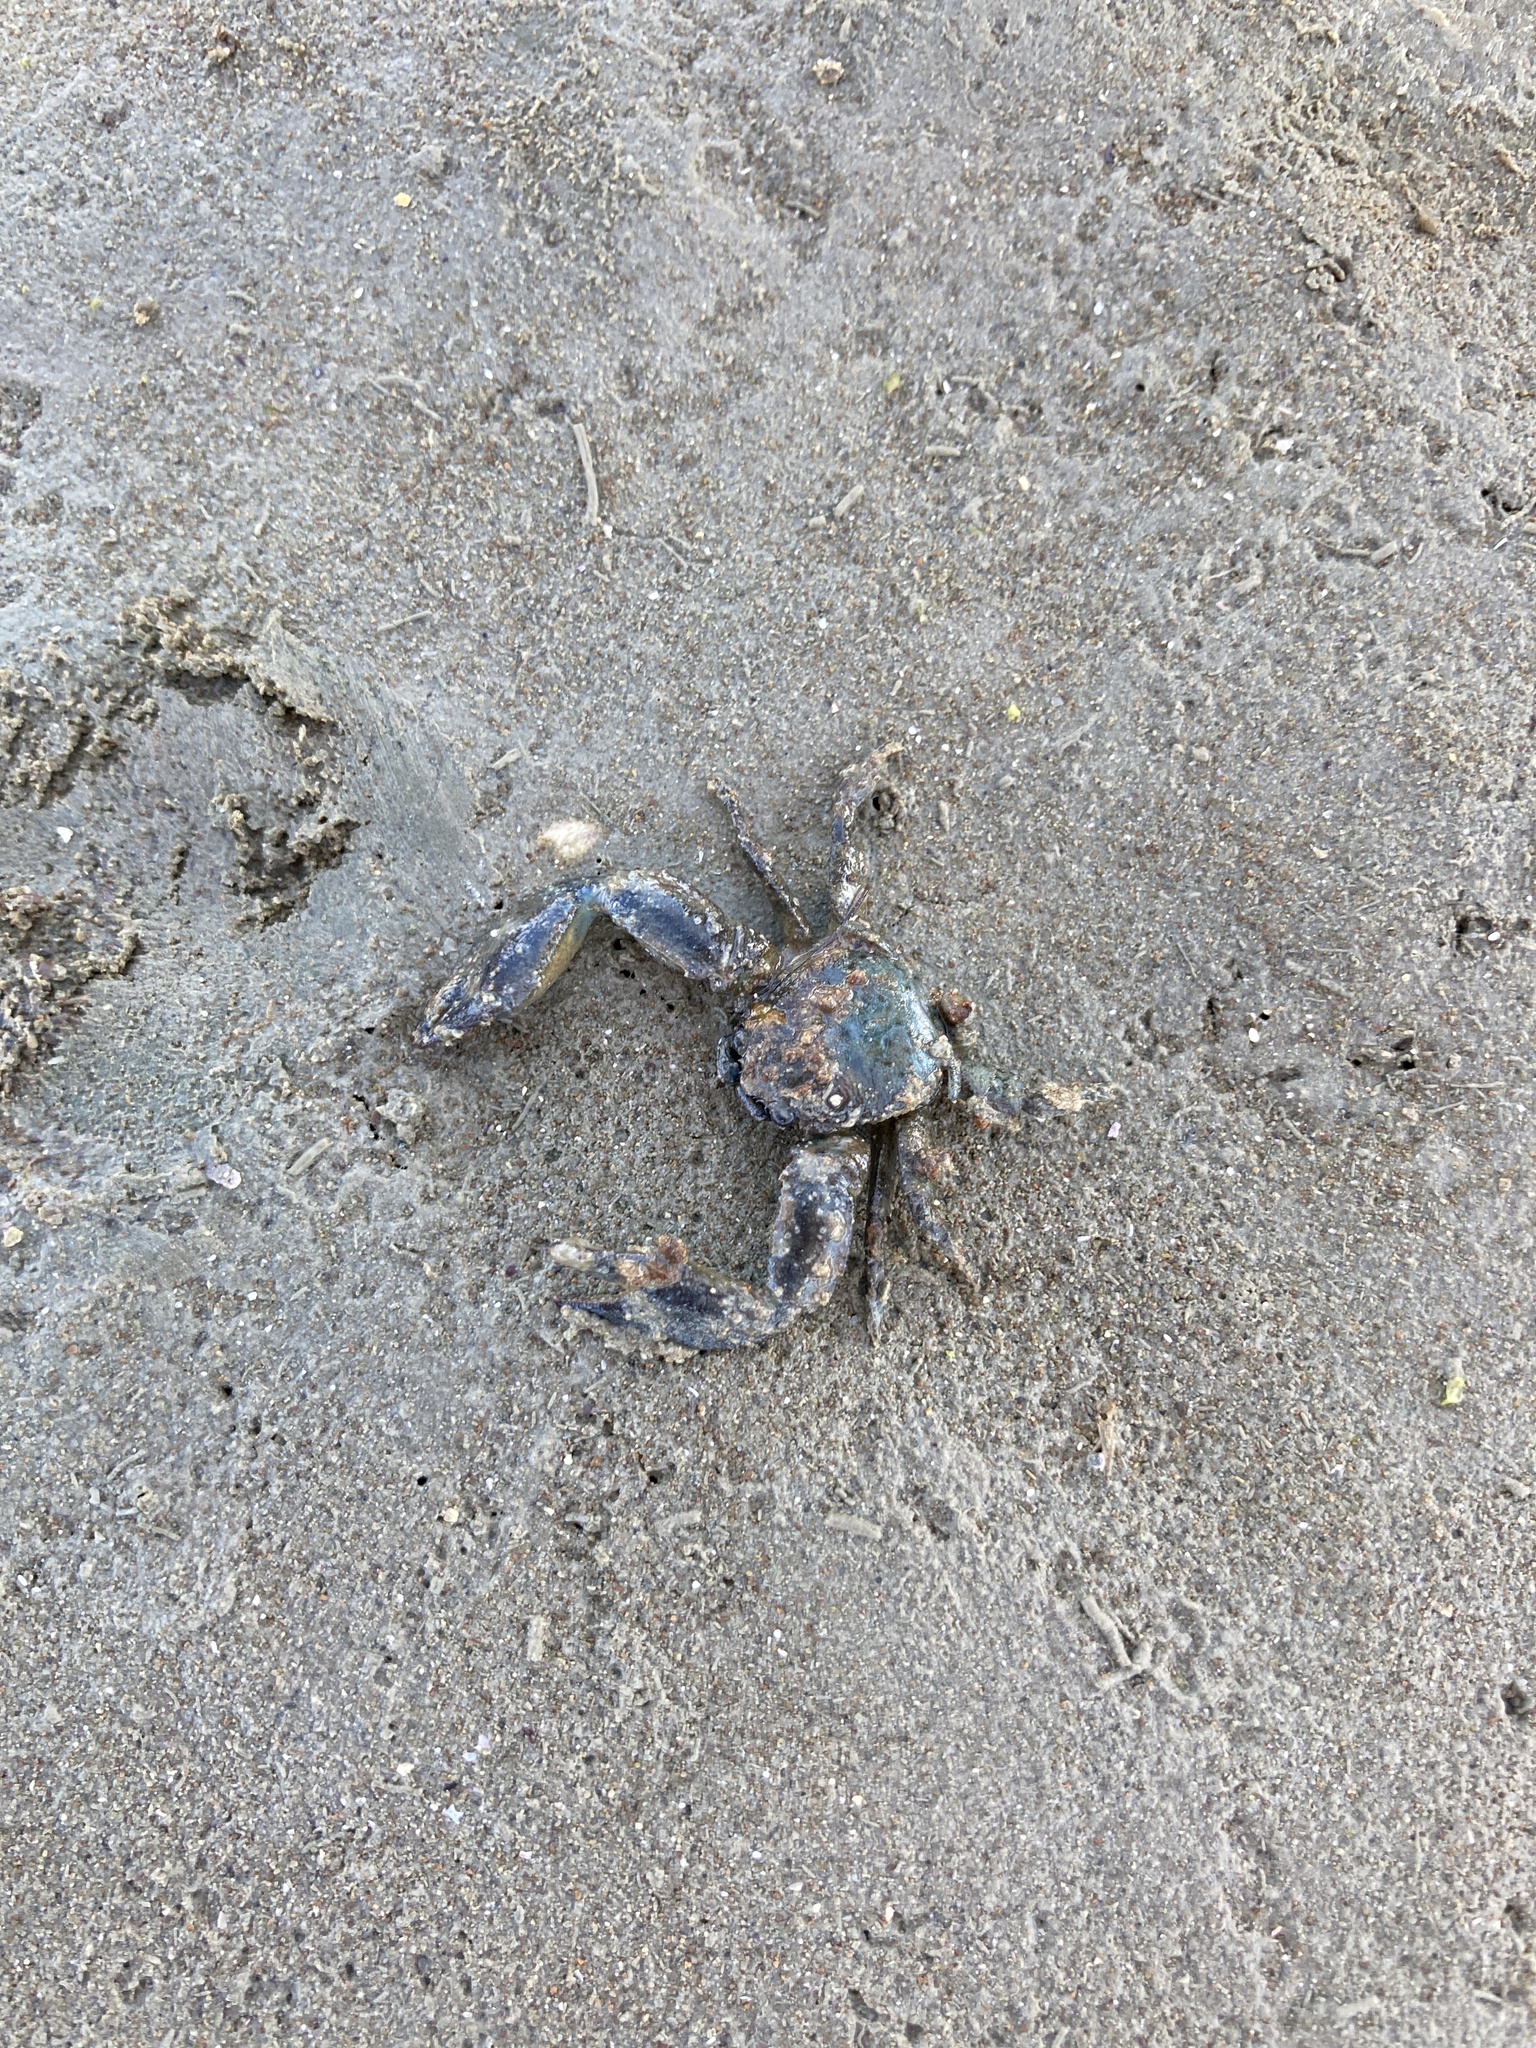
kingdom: Animalia
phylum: Arthropoda
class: Malacostraca
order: Decapoda
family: Porcellanidae
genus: Petrolisthes
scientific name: Petrolisthes elongatus
